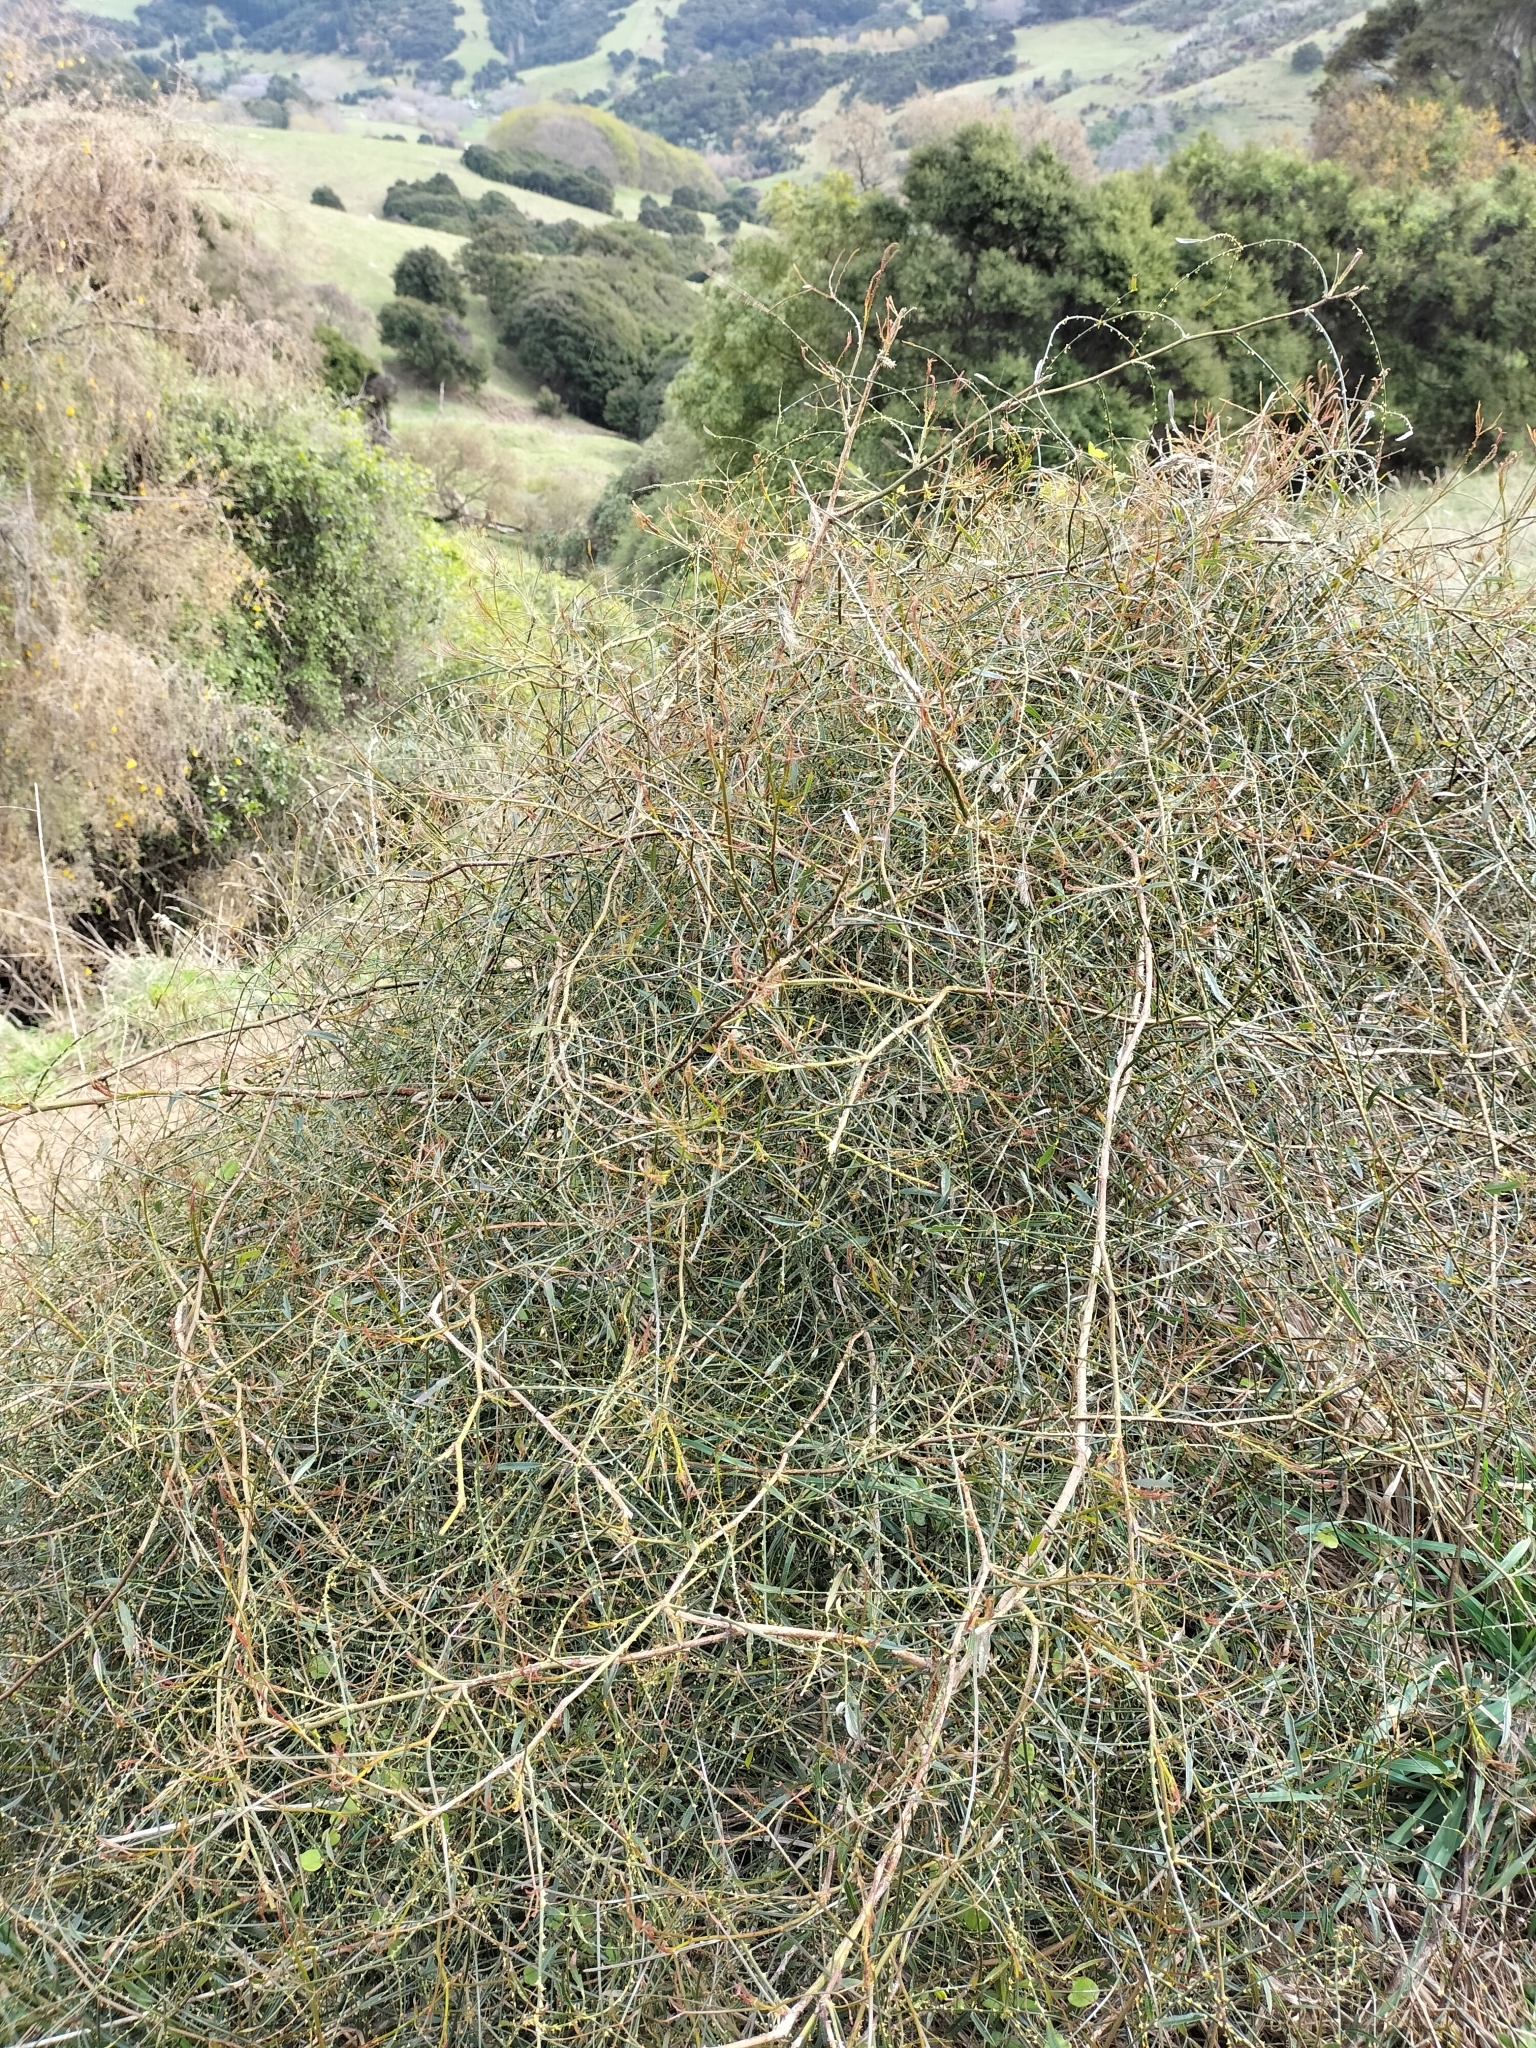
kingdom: Plantae
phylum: Tracheophyta
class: Magnoliopsida
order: Rosales
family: Rosaceae
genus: Rubus
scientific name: Rubus squarrosus
